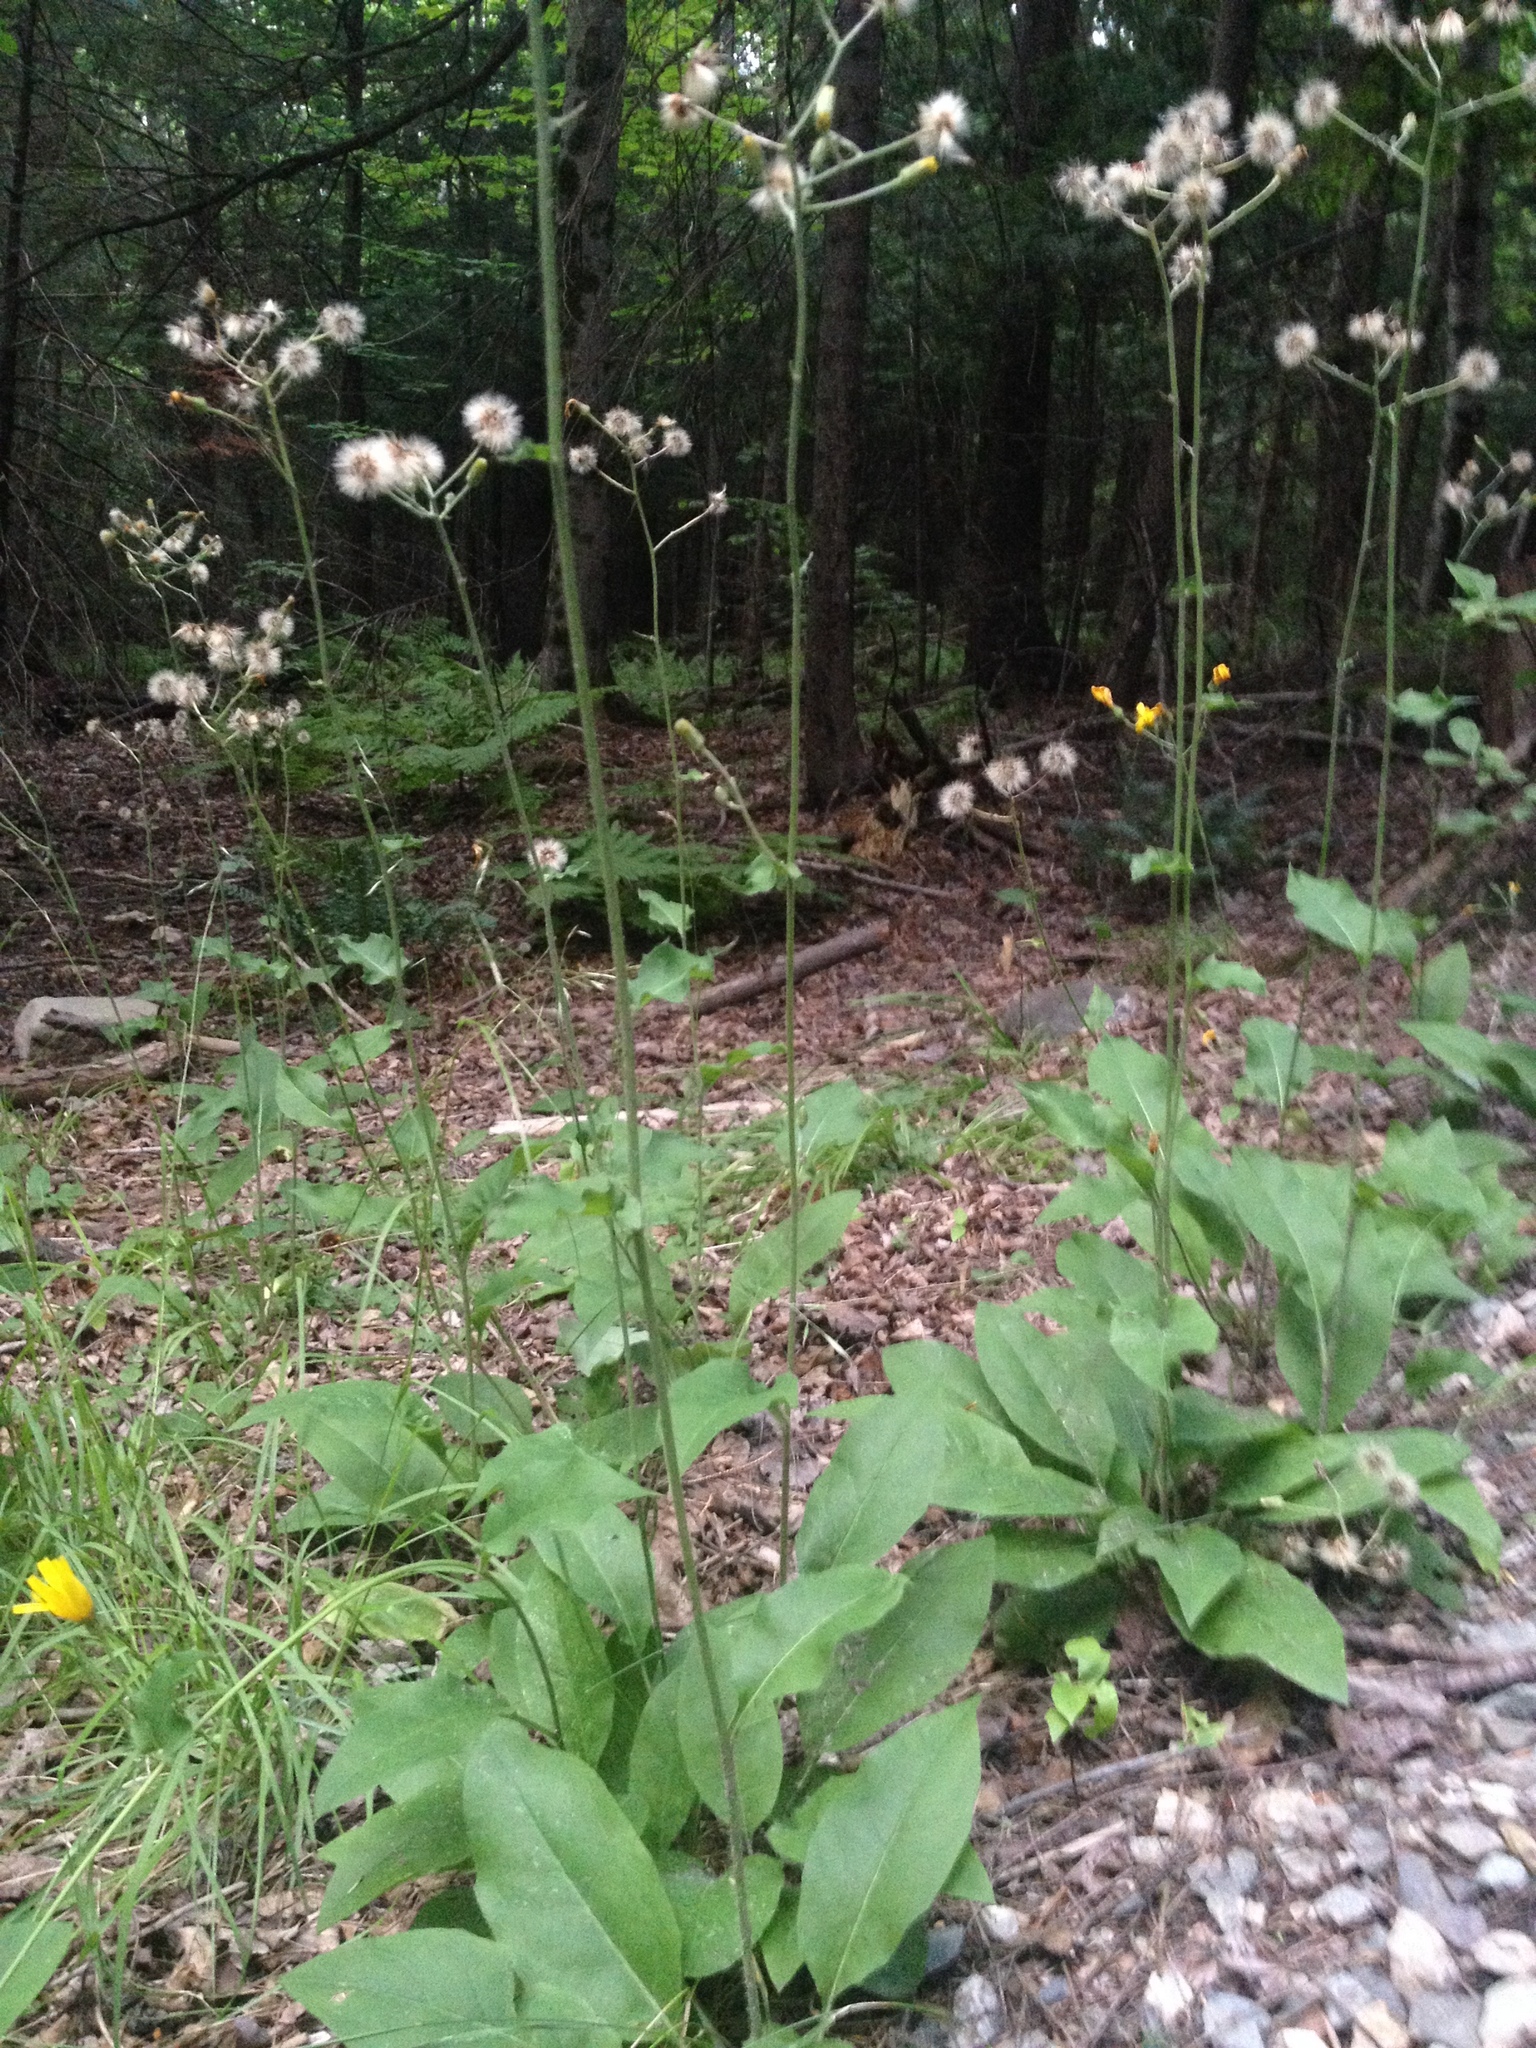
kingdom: Plantae
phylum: Tracheophyta
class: Magnoliopsida
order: Asterales
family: Asteraceae
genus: Hieracium
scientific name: Hieracium lachenalii
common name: Common hawkweed
